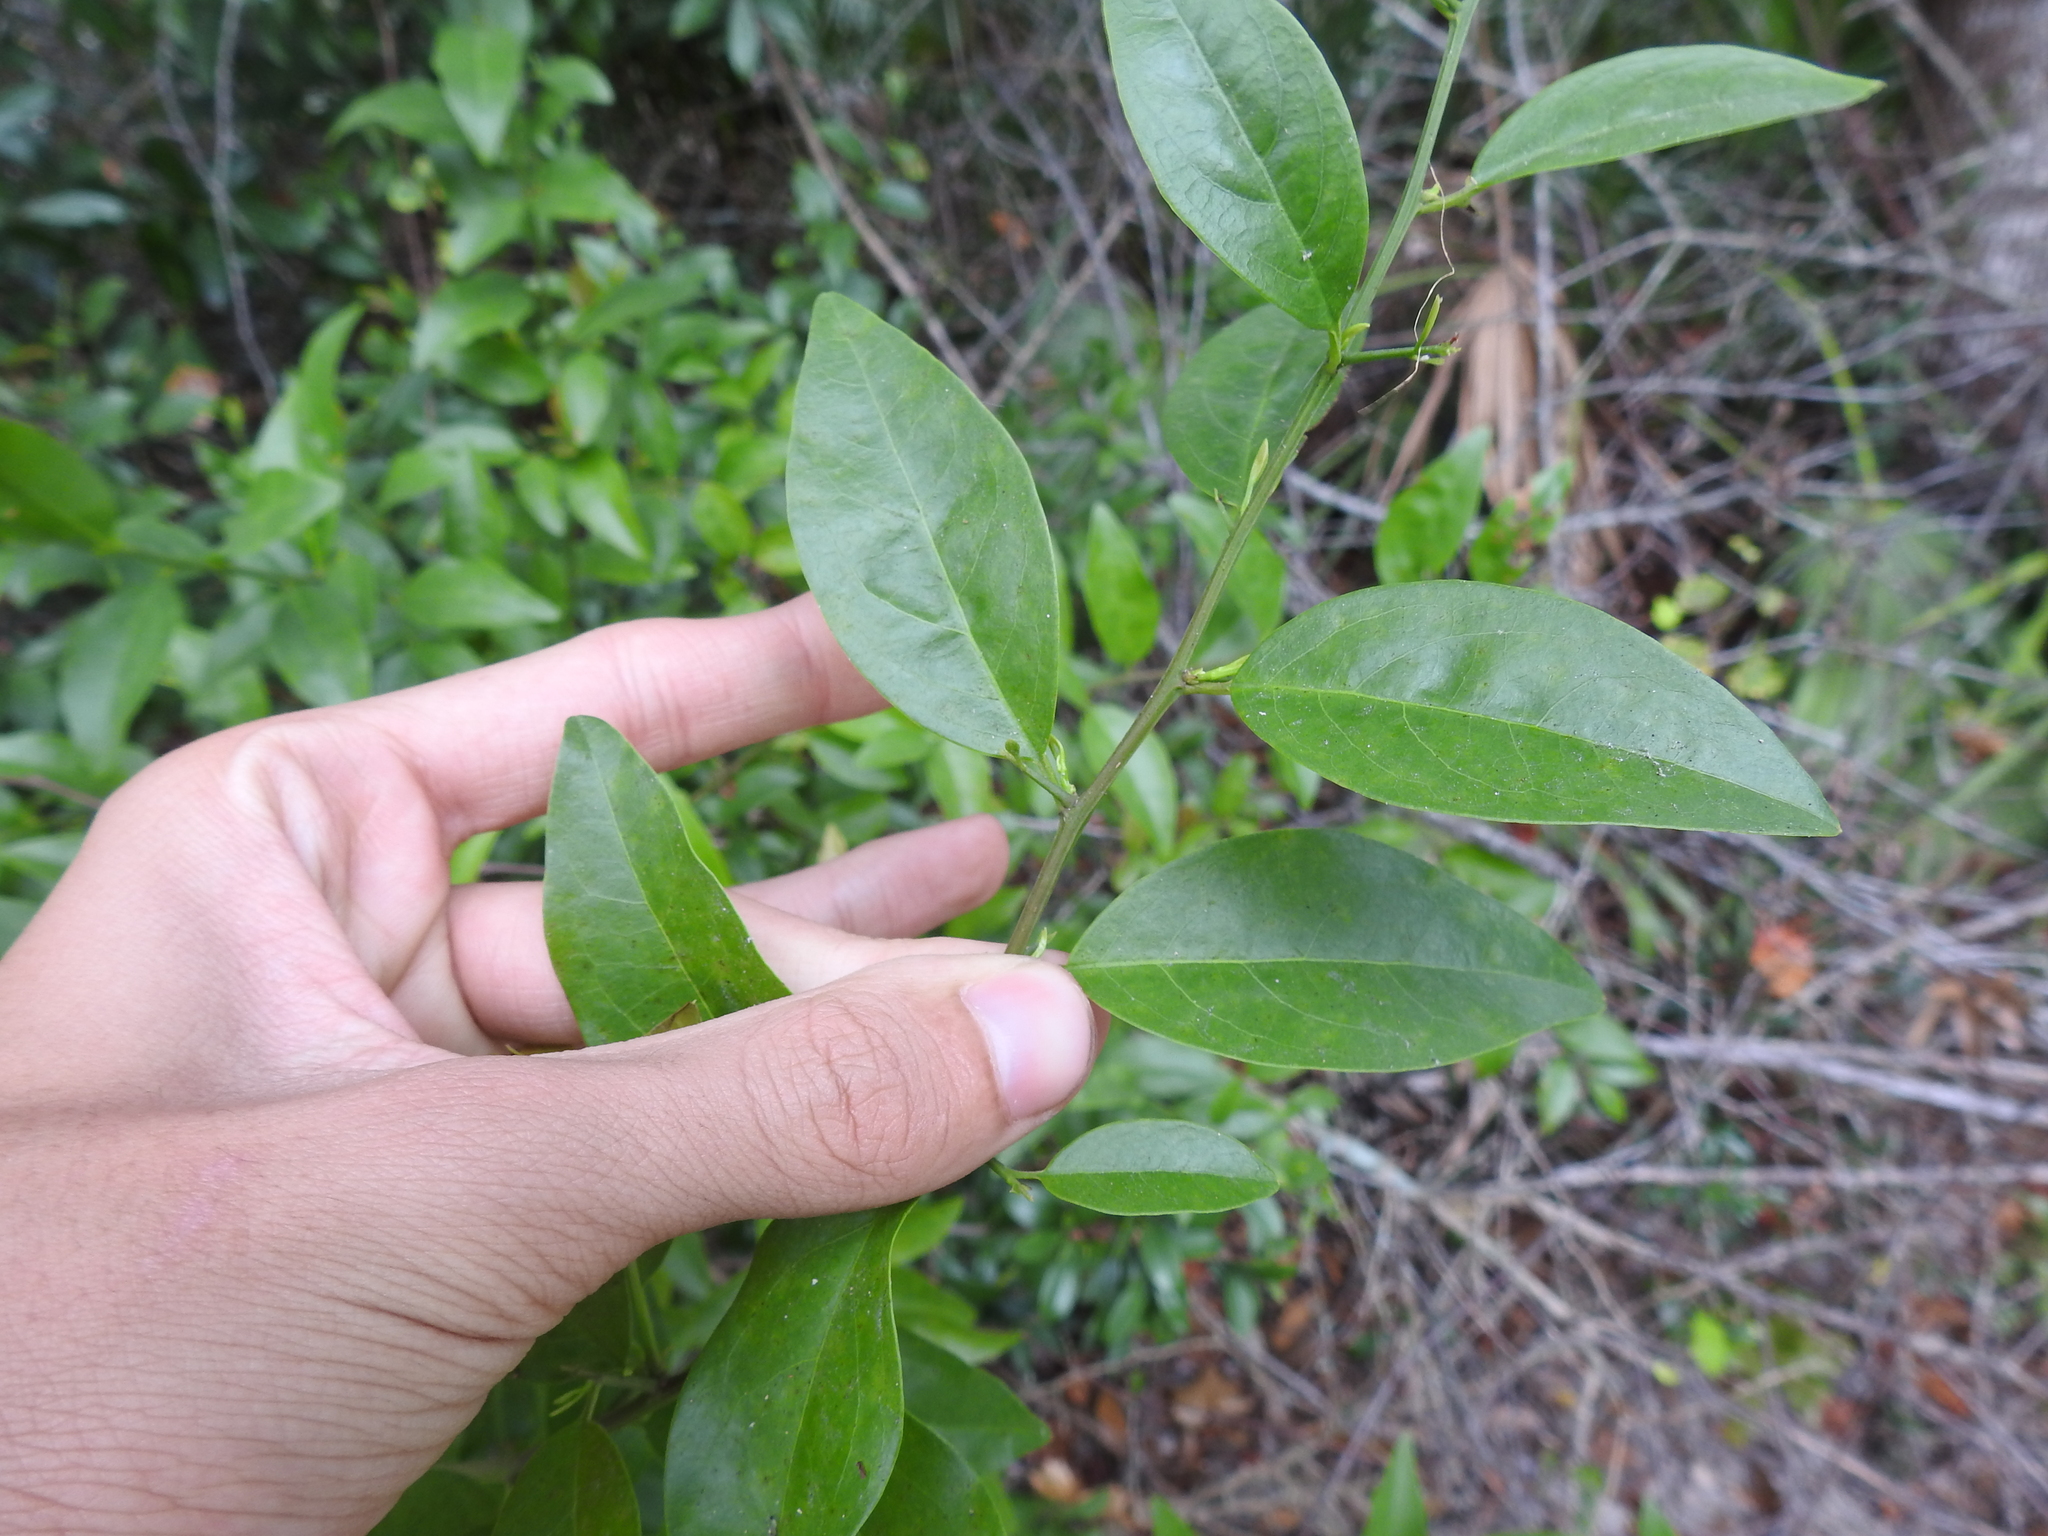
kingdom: Plantae
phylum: Tracheophyta
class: Magnoliopsida
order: Santalales
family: Ximeniaceae
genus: Ximenia
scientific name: Ximenia americana
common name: Tallowwood
